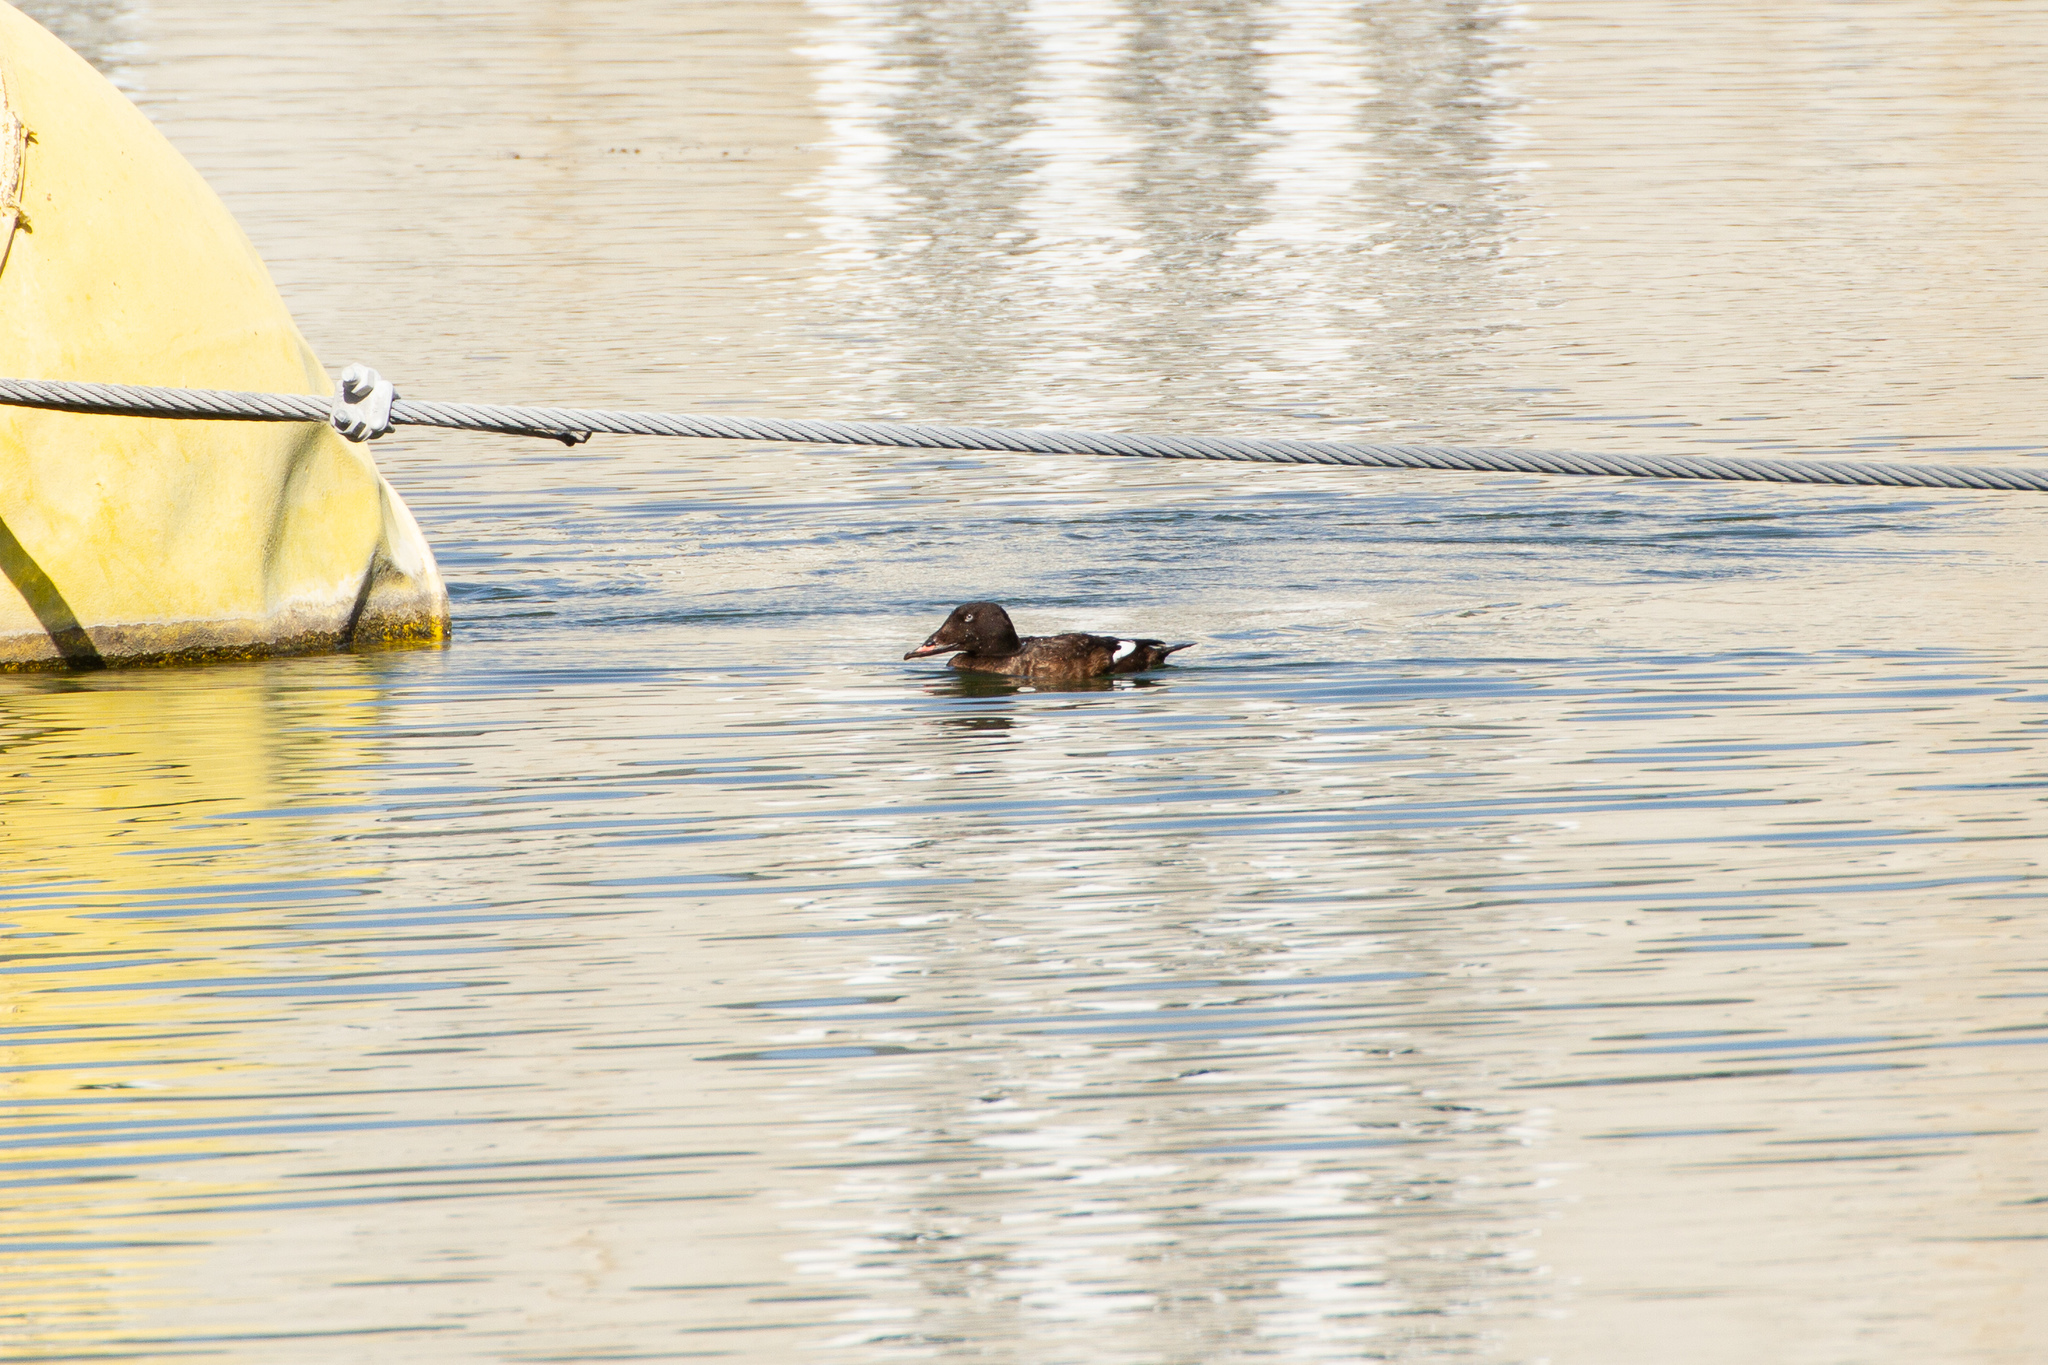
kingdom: Animalia
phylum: Chordata
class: Aves
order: Anseriformes
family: Anatidae
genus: Melanitta
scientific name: Melanitta deglandi
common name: White-winged scoter
